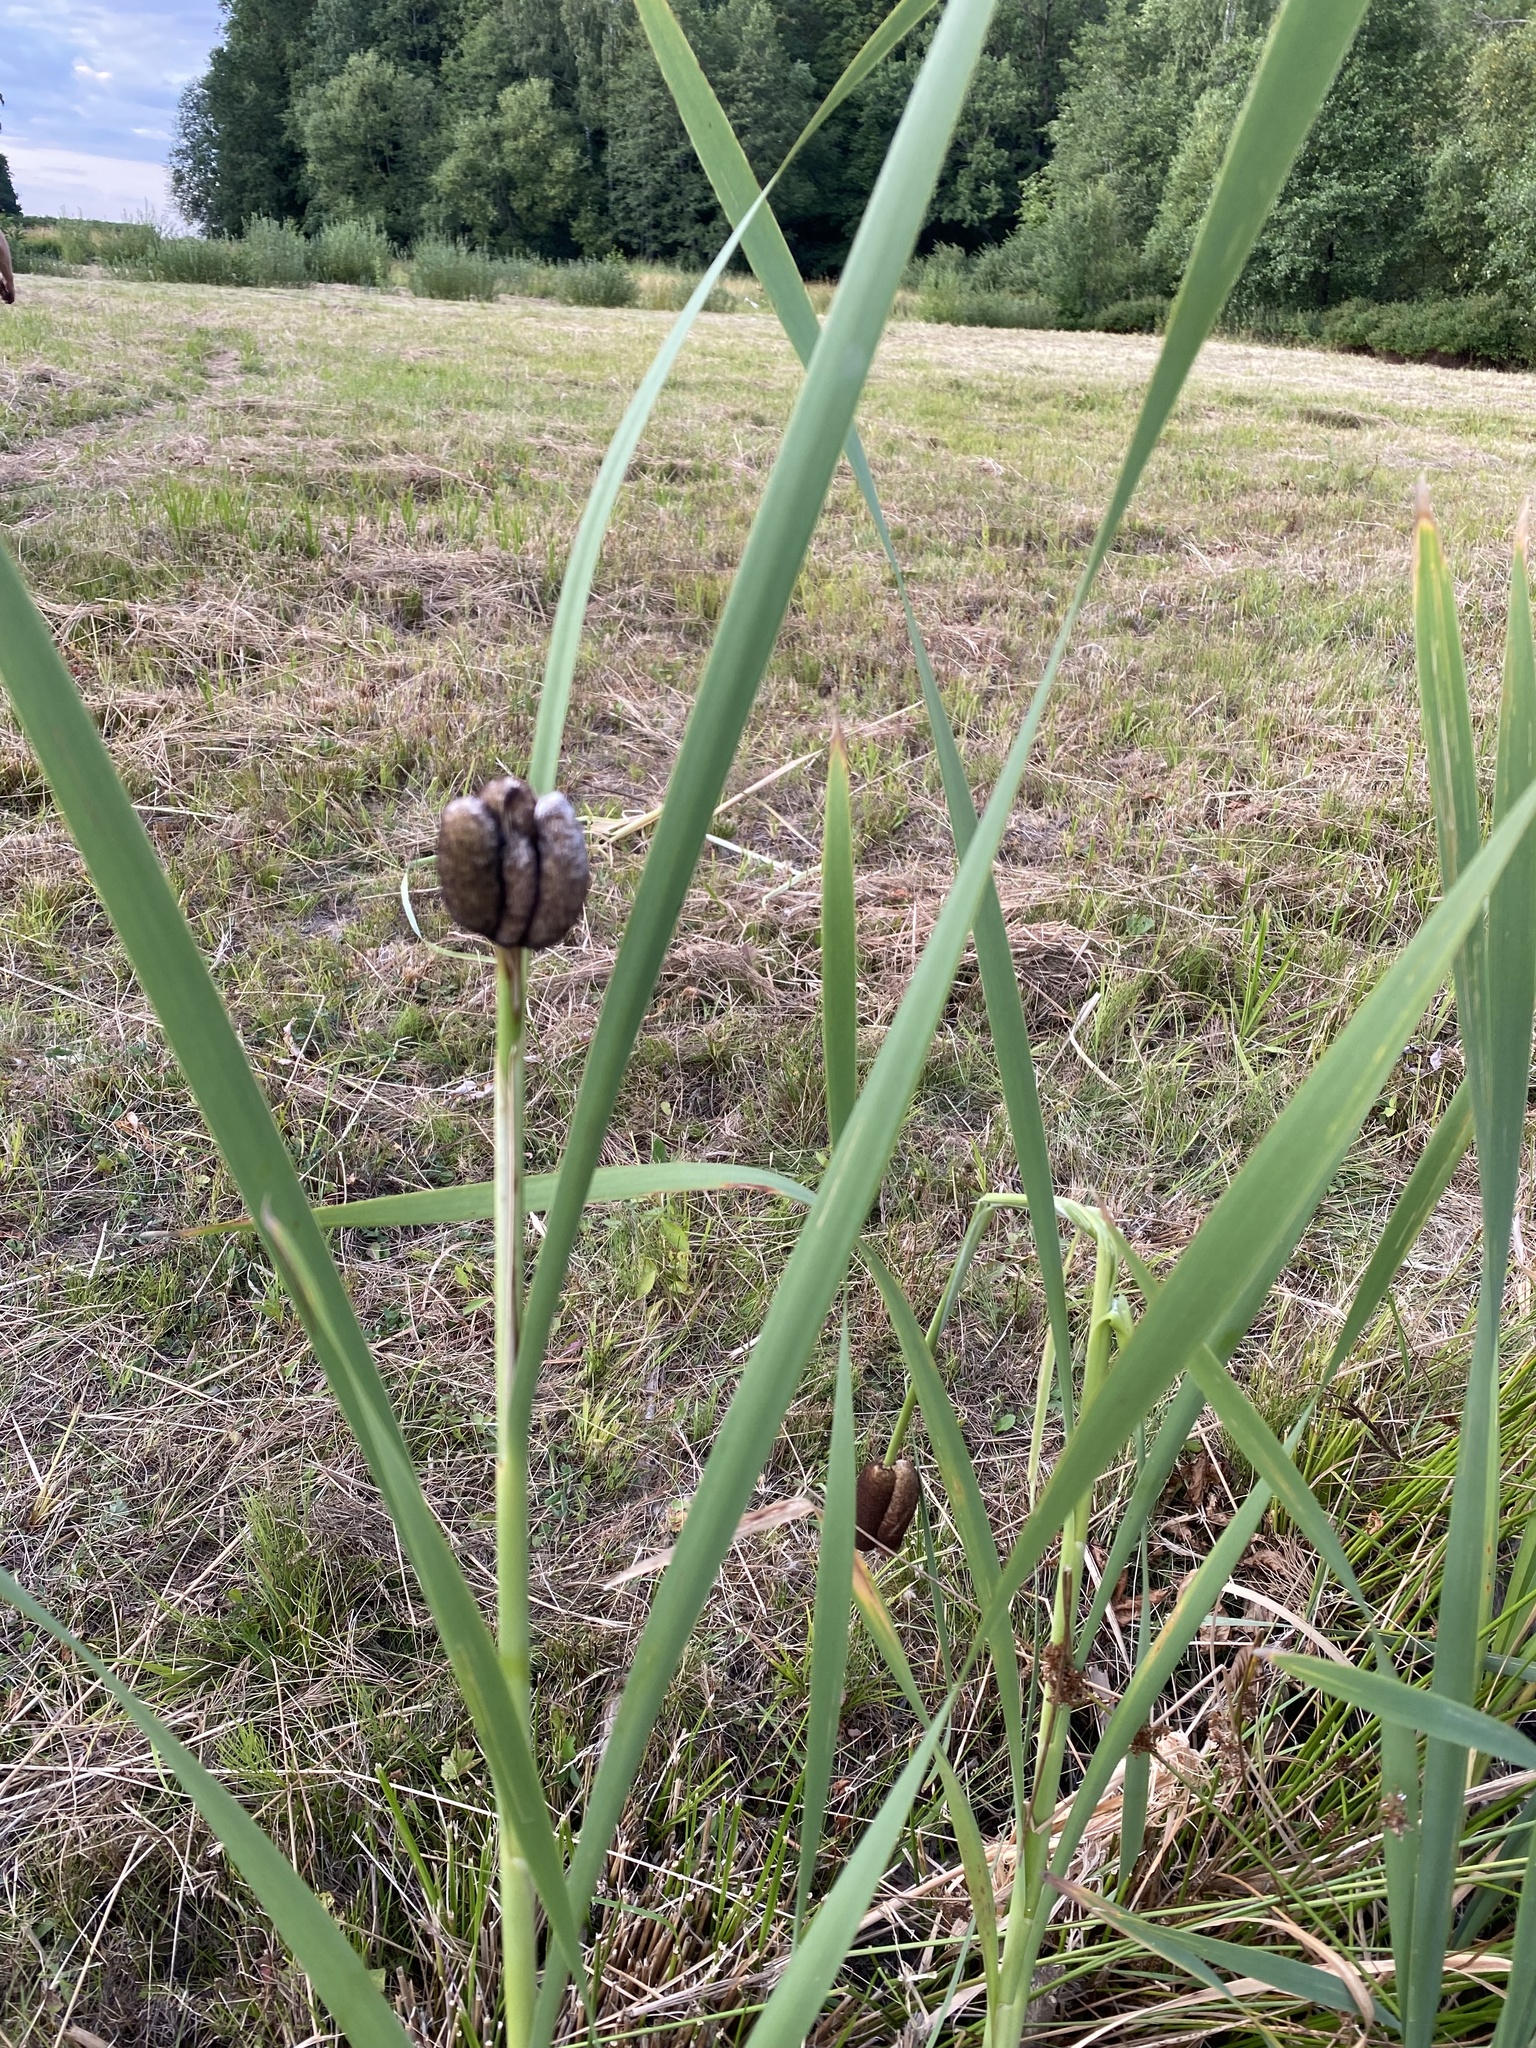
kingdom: Plantae
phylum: Tracheophyta
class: Liliopsida
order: Poales
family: Typhaceae
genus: Typha
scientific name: Typha latifolia
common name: Broadleaf cattail
